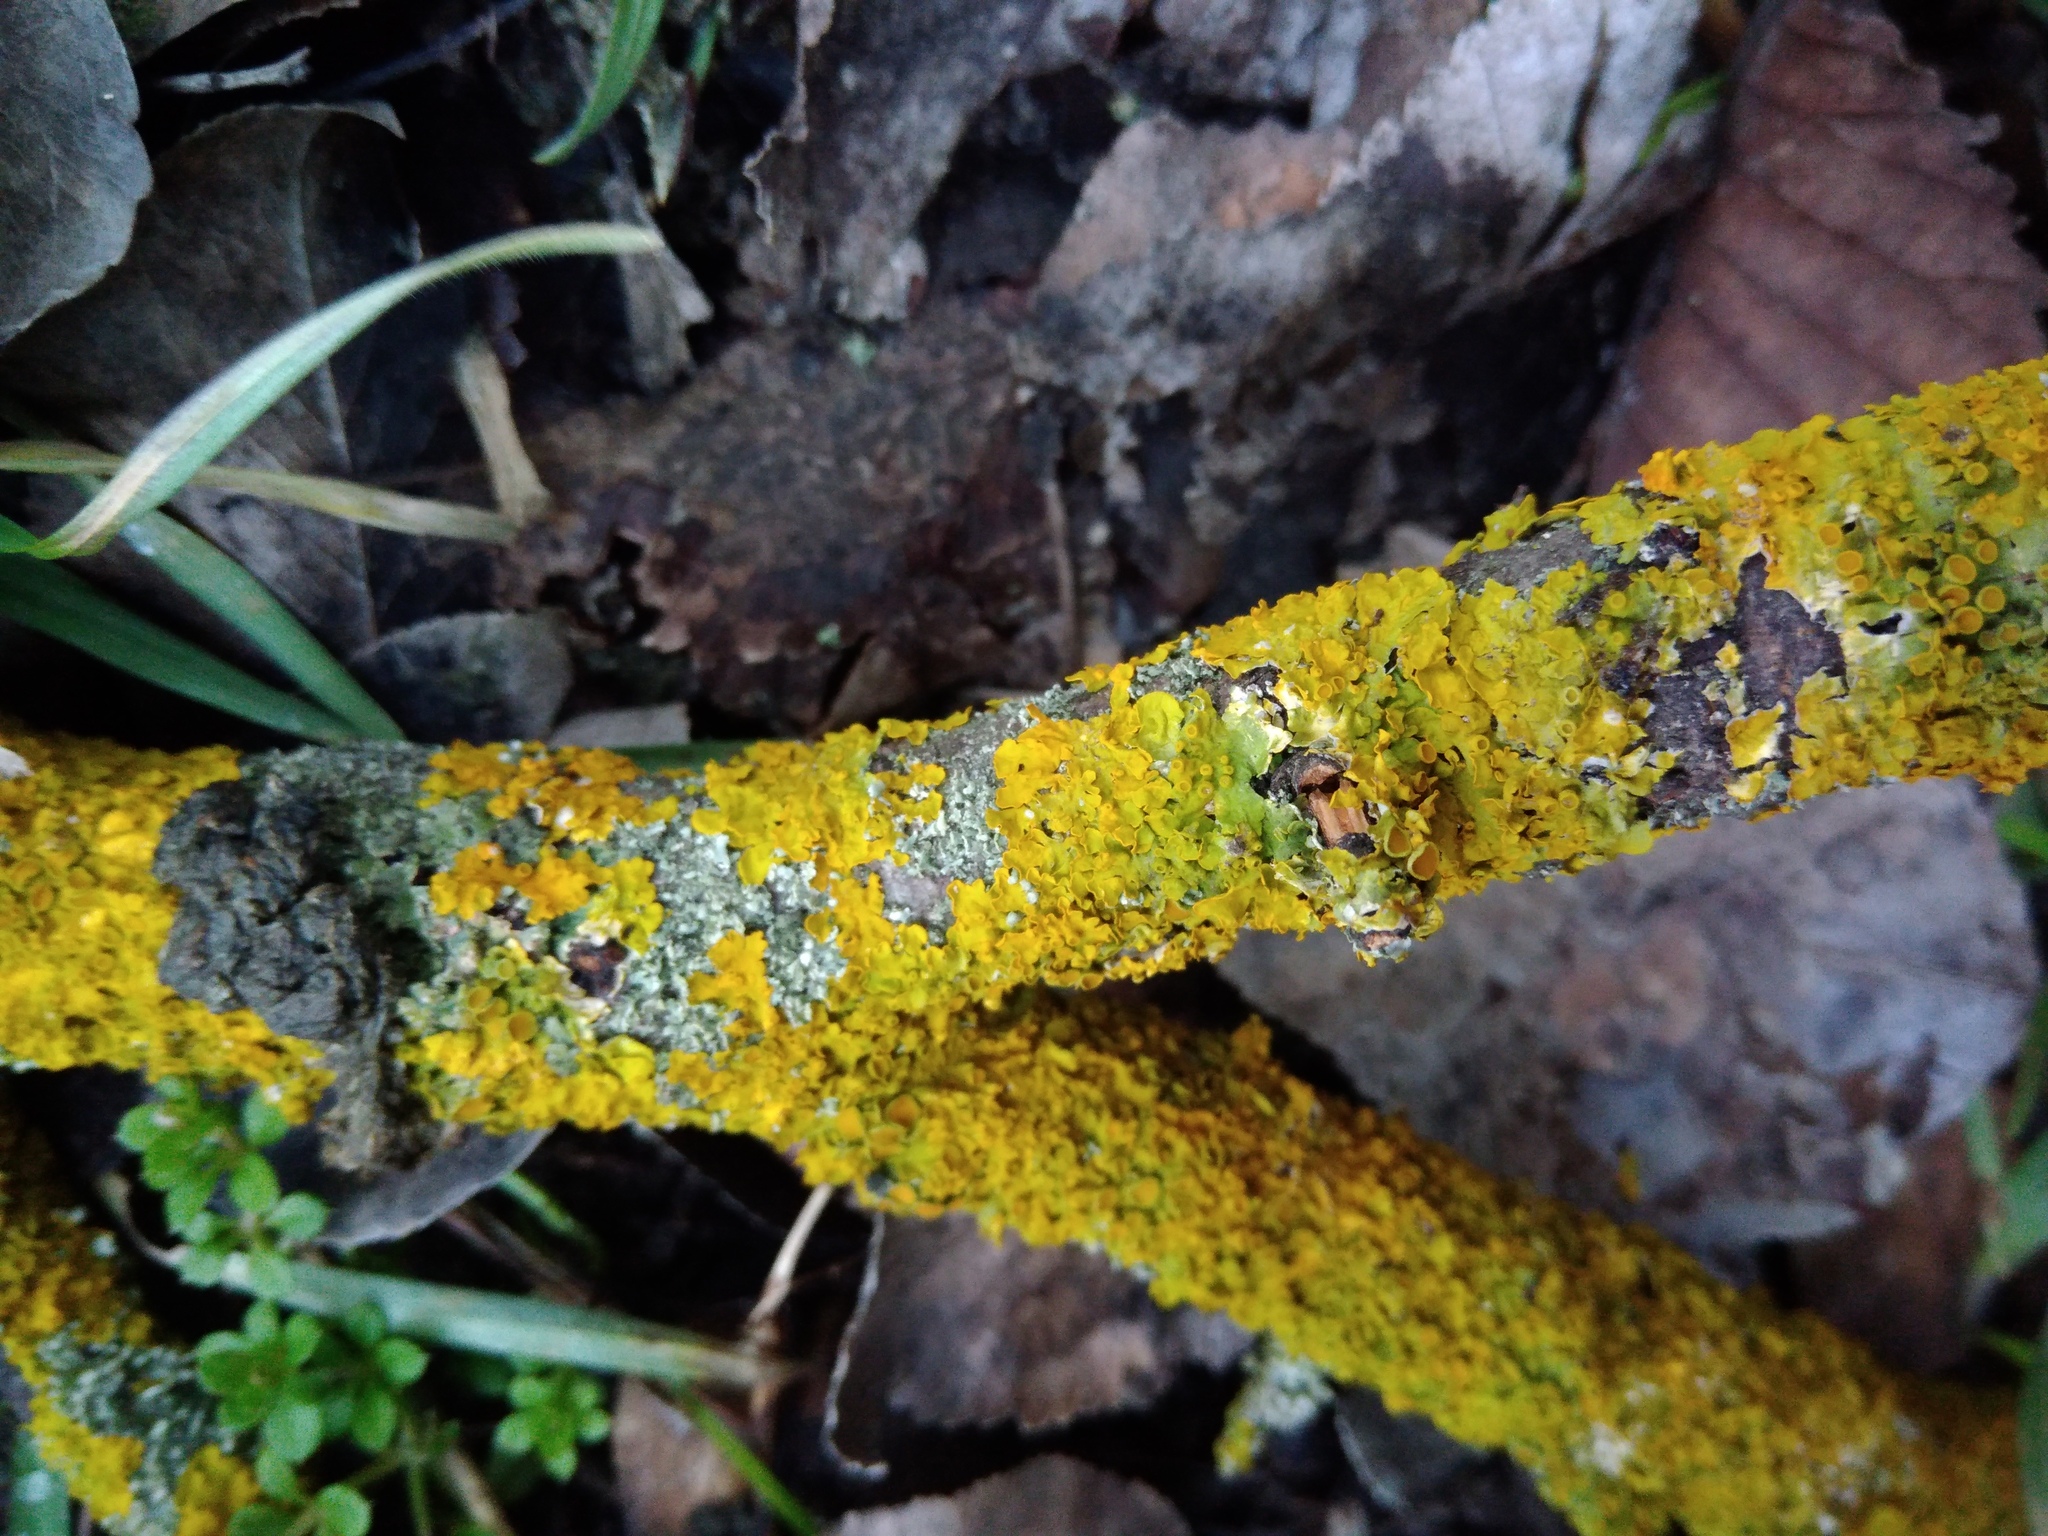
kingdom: Fungi
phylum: Ascomycota
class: Lecanoromycetes
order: Teloschistales
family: Teloschistaceae
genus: Xanthoria
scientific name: Xanthoria parietina
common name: Common orange lichen
